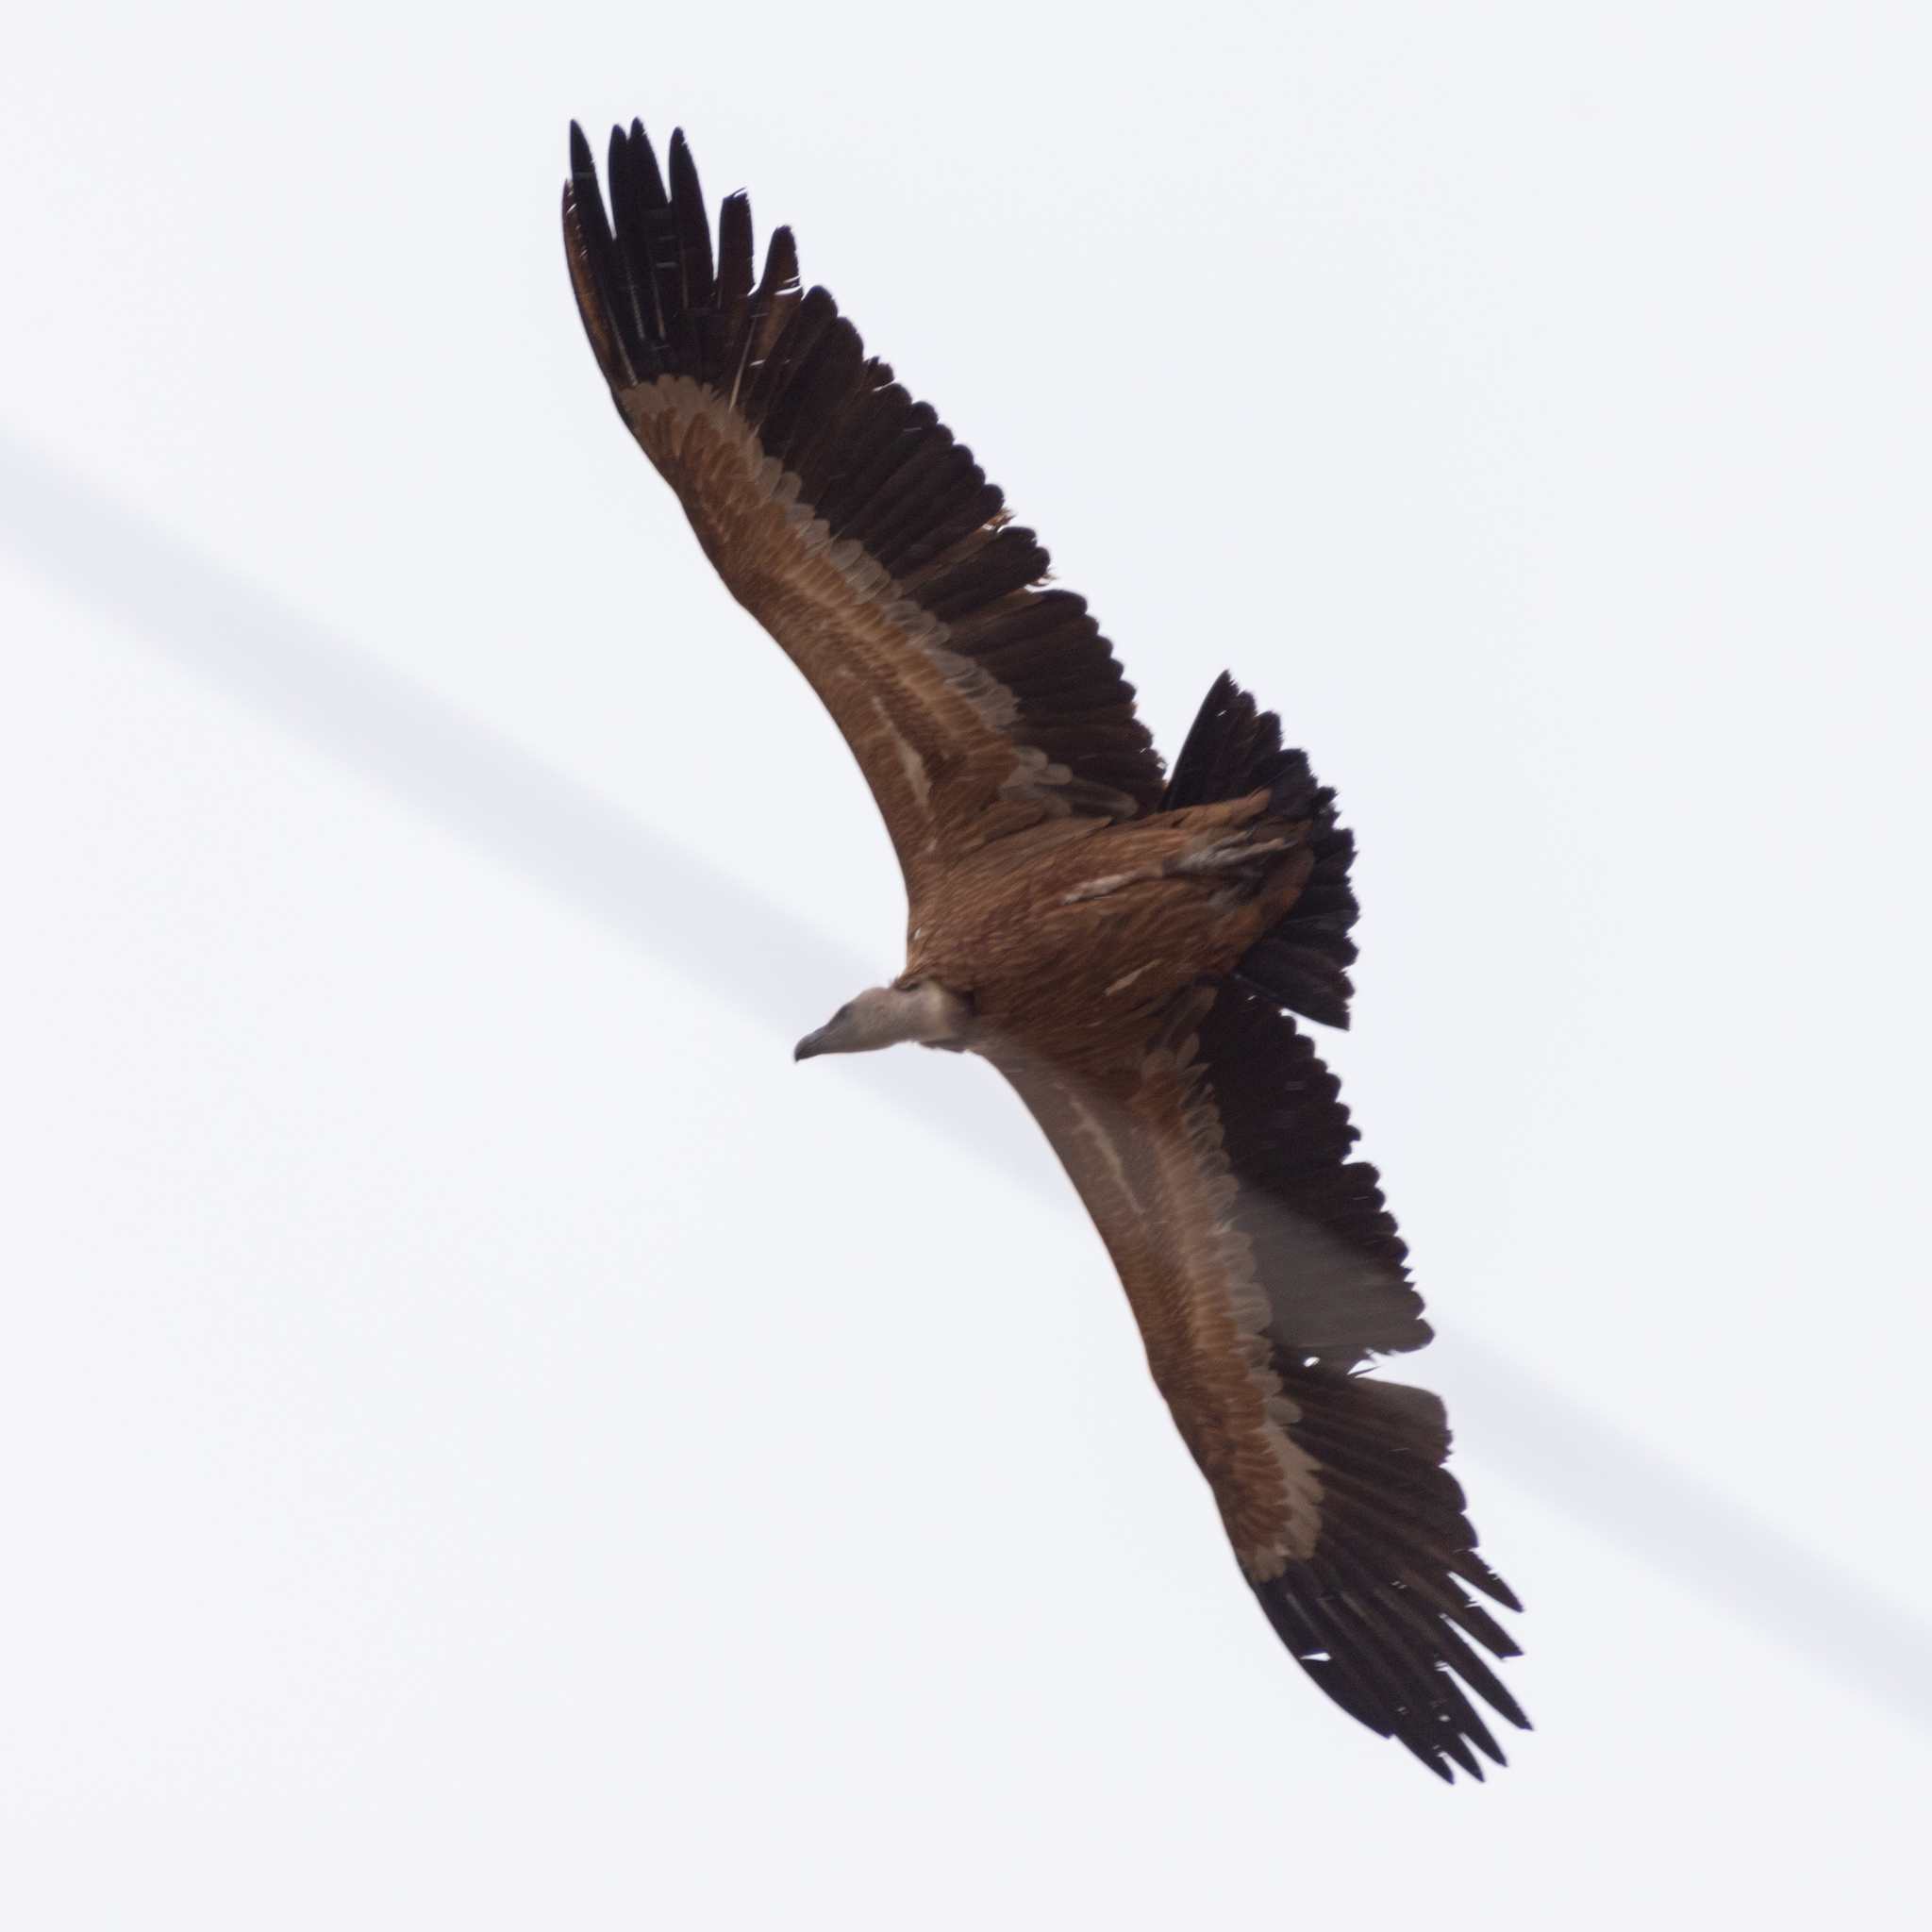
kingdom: Animalia
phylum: Chordata
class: Aves
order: Accipitriformes
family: Accipitridae
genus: Gyps
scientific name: Gyps fulvus
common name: Griffon vulture
